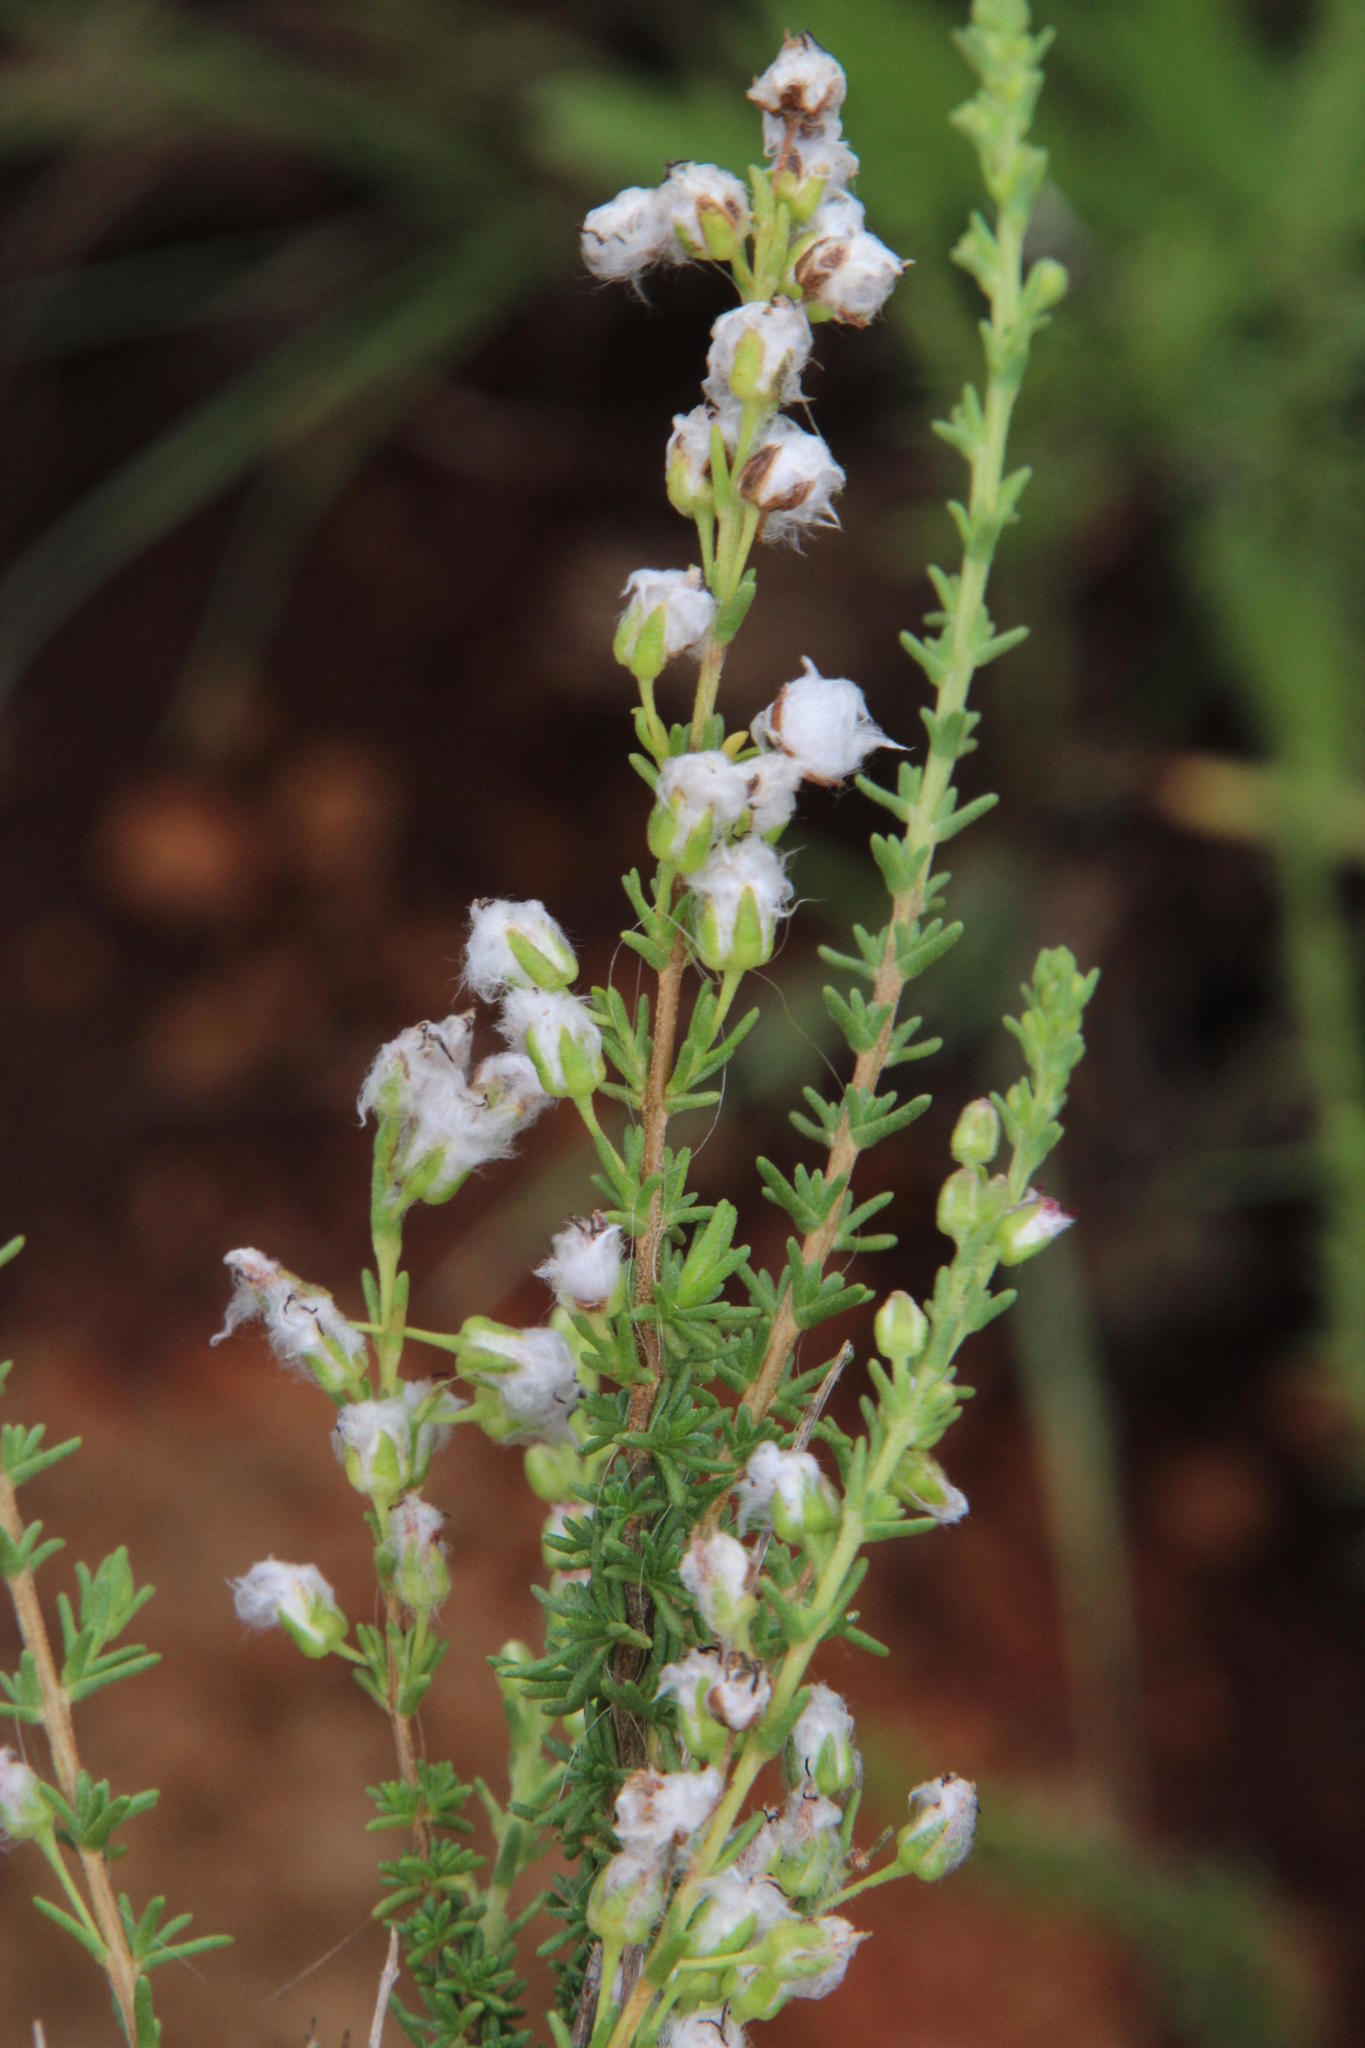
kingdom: Plantae
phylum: Tracheophyta
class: Magnoliopsida
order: Asterales
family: Asteraceae
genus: Eriocephalus
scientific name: Eriocephalus ericoides
